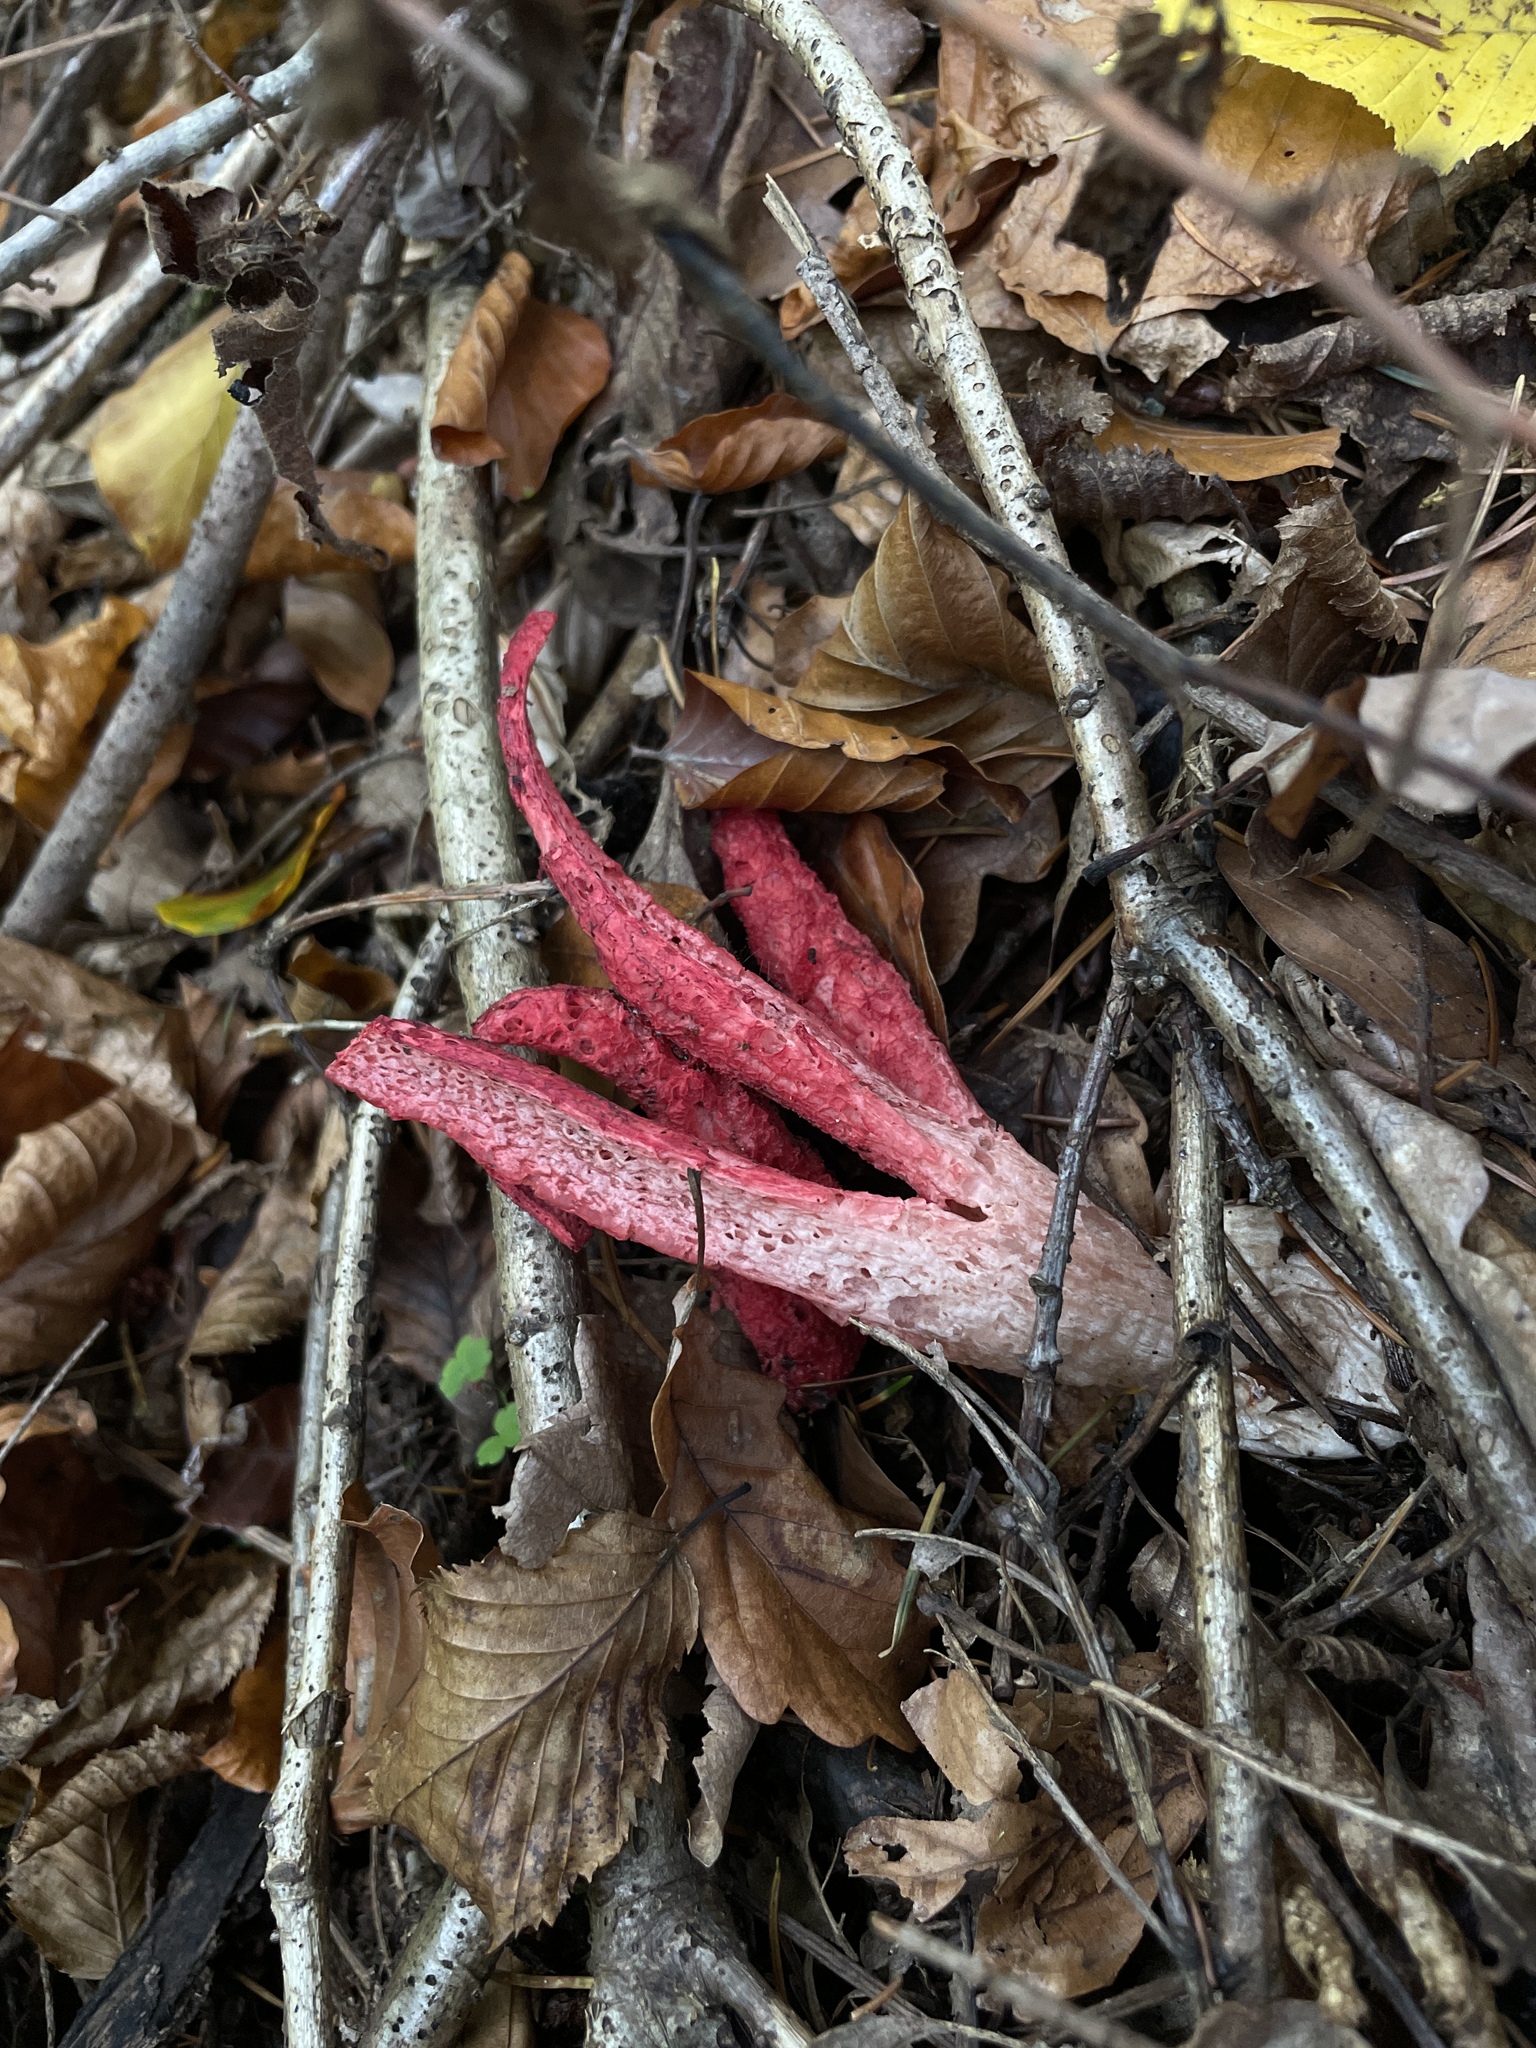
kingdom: Fungi
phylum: Basidiomycota
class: Agaricomycetes
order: Phallales
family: Phallaceae
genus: Clathrus
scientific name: Clathrus archeri
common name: Devil's fingers
